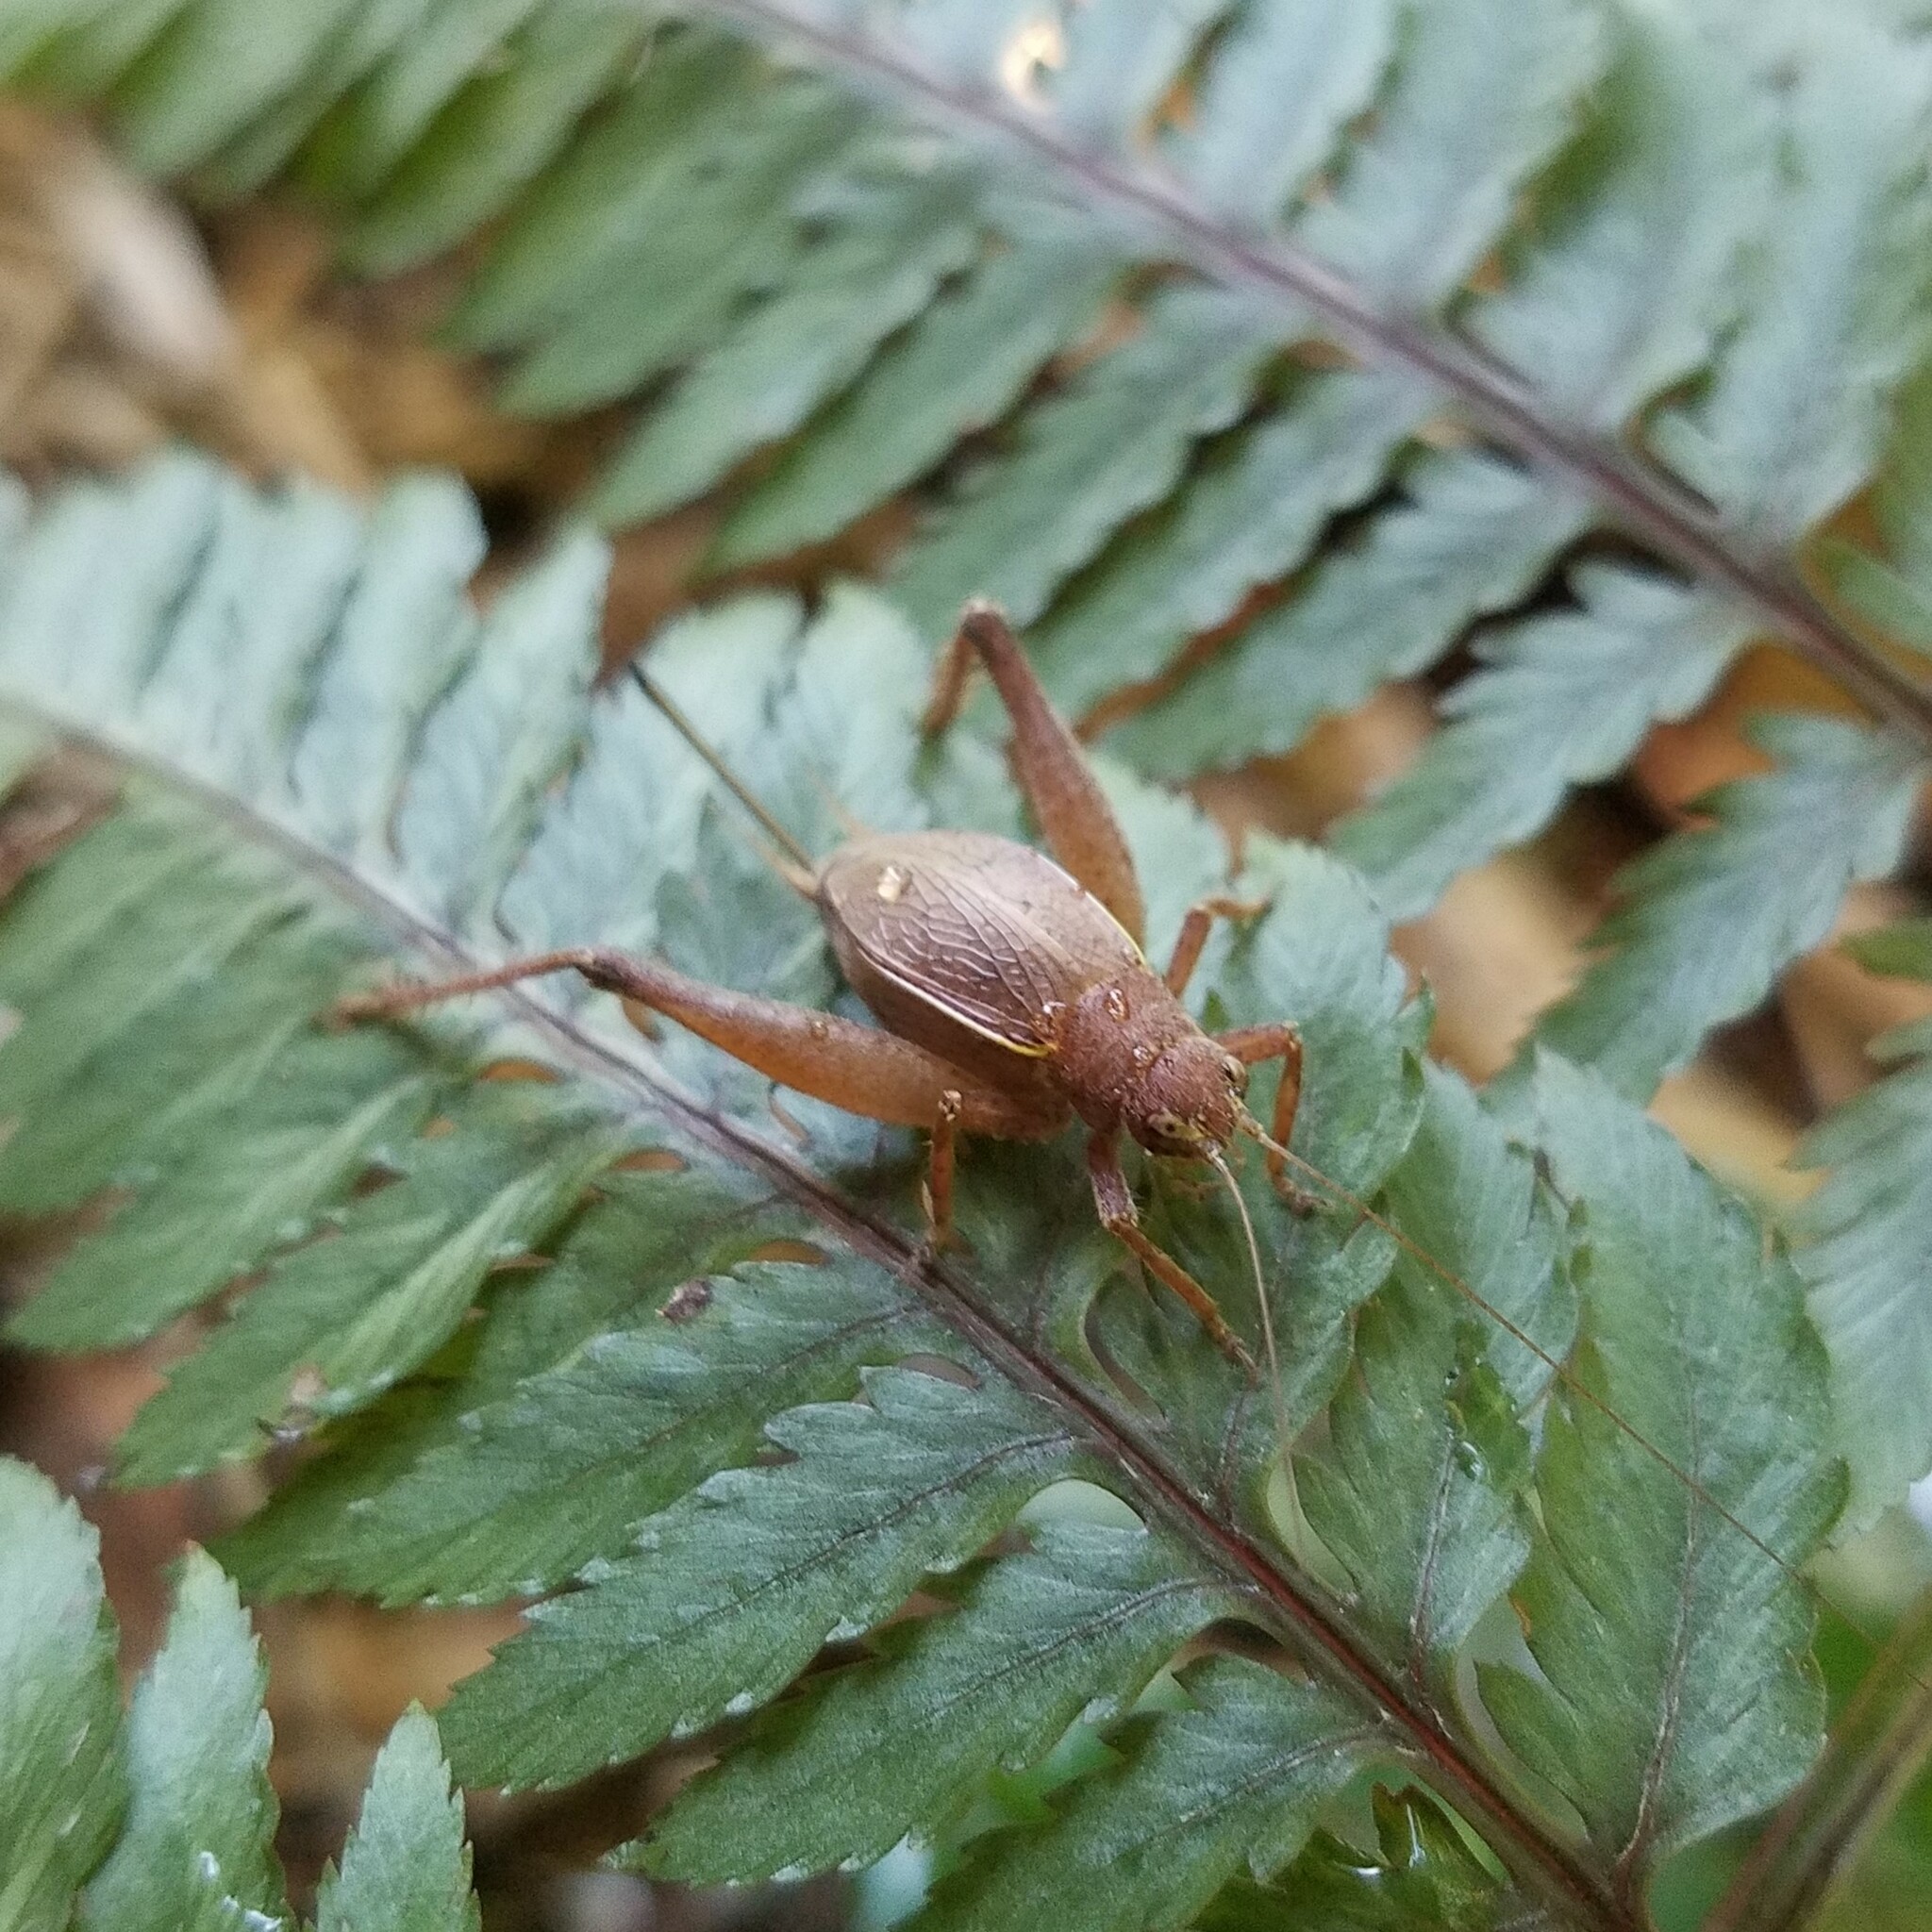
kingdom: Animalia
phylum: Arthropoda
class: Insecta
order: Orthoptera
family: Gryllidae
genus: Hapithus
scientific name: Hapithus agitator
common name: Restless bush cricket
